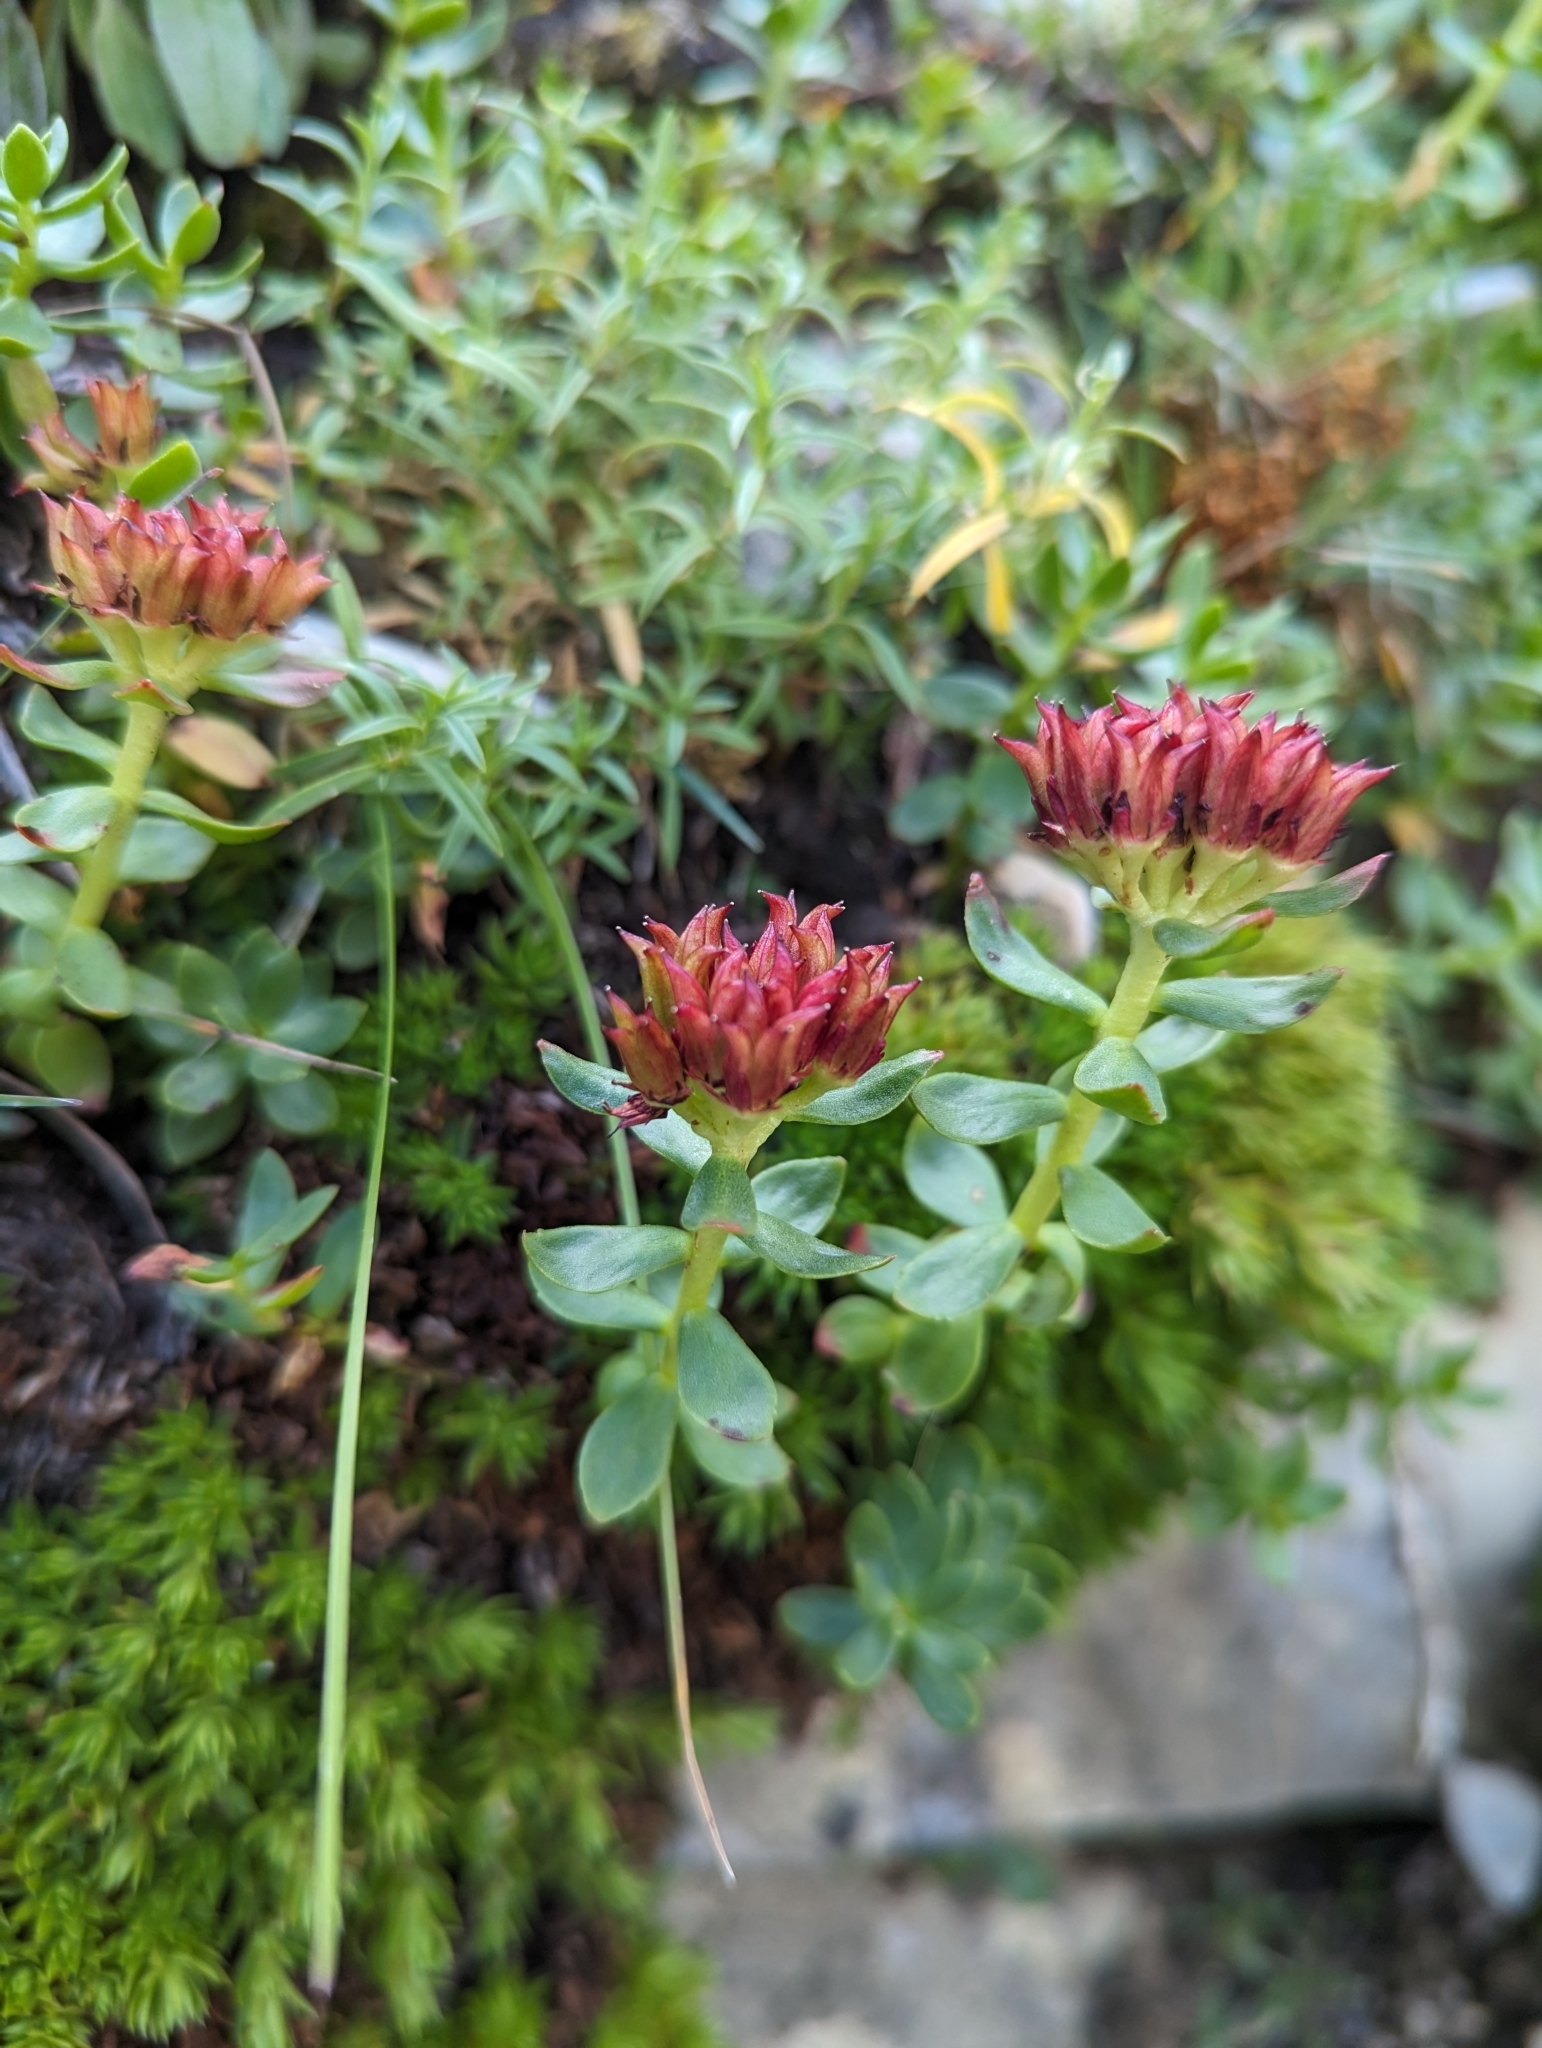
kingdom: Plantae
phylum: Tracheophyta
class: Magnoliopsida
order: Saxifragales
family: Crassulaceae
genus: Rhodiola
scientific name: Rhodiola integrifolia
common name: Western roseroot
